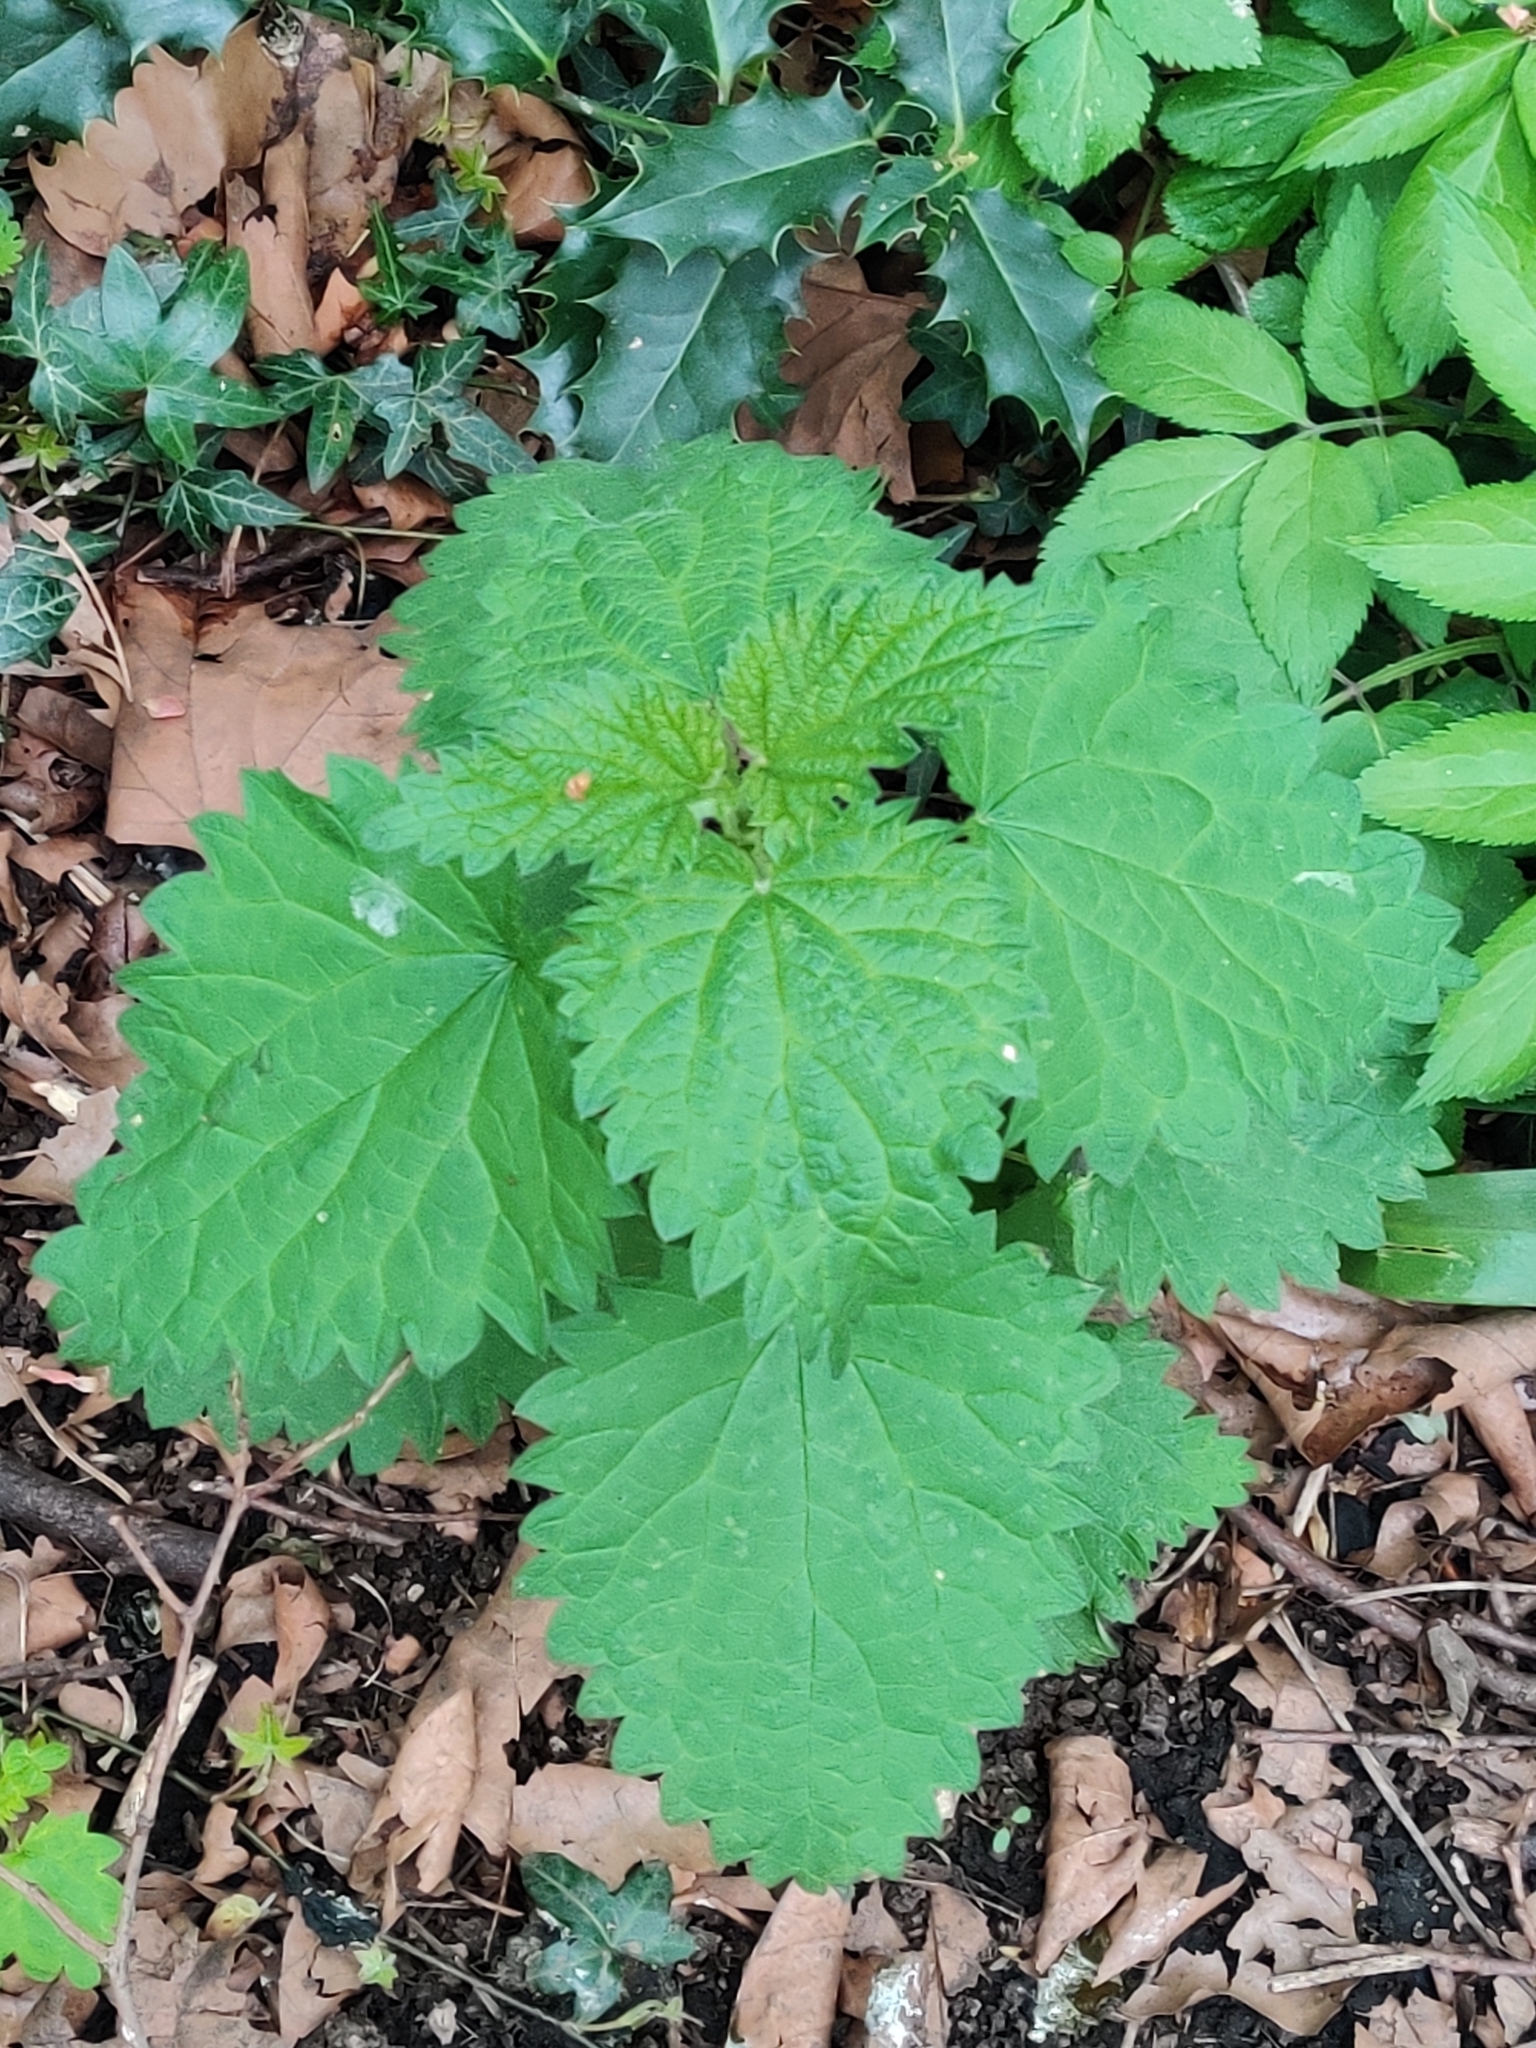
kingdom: Plantae
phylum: Tracheophyta
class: Magnoliopsida
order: Rosales
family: Urticaceae
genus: Urtica
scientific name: Urtica dioica
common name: Common nettle
